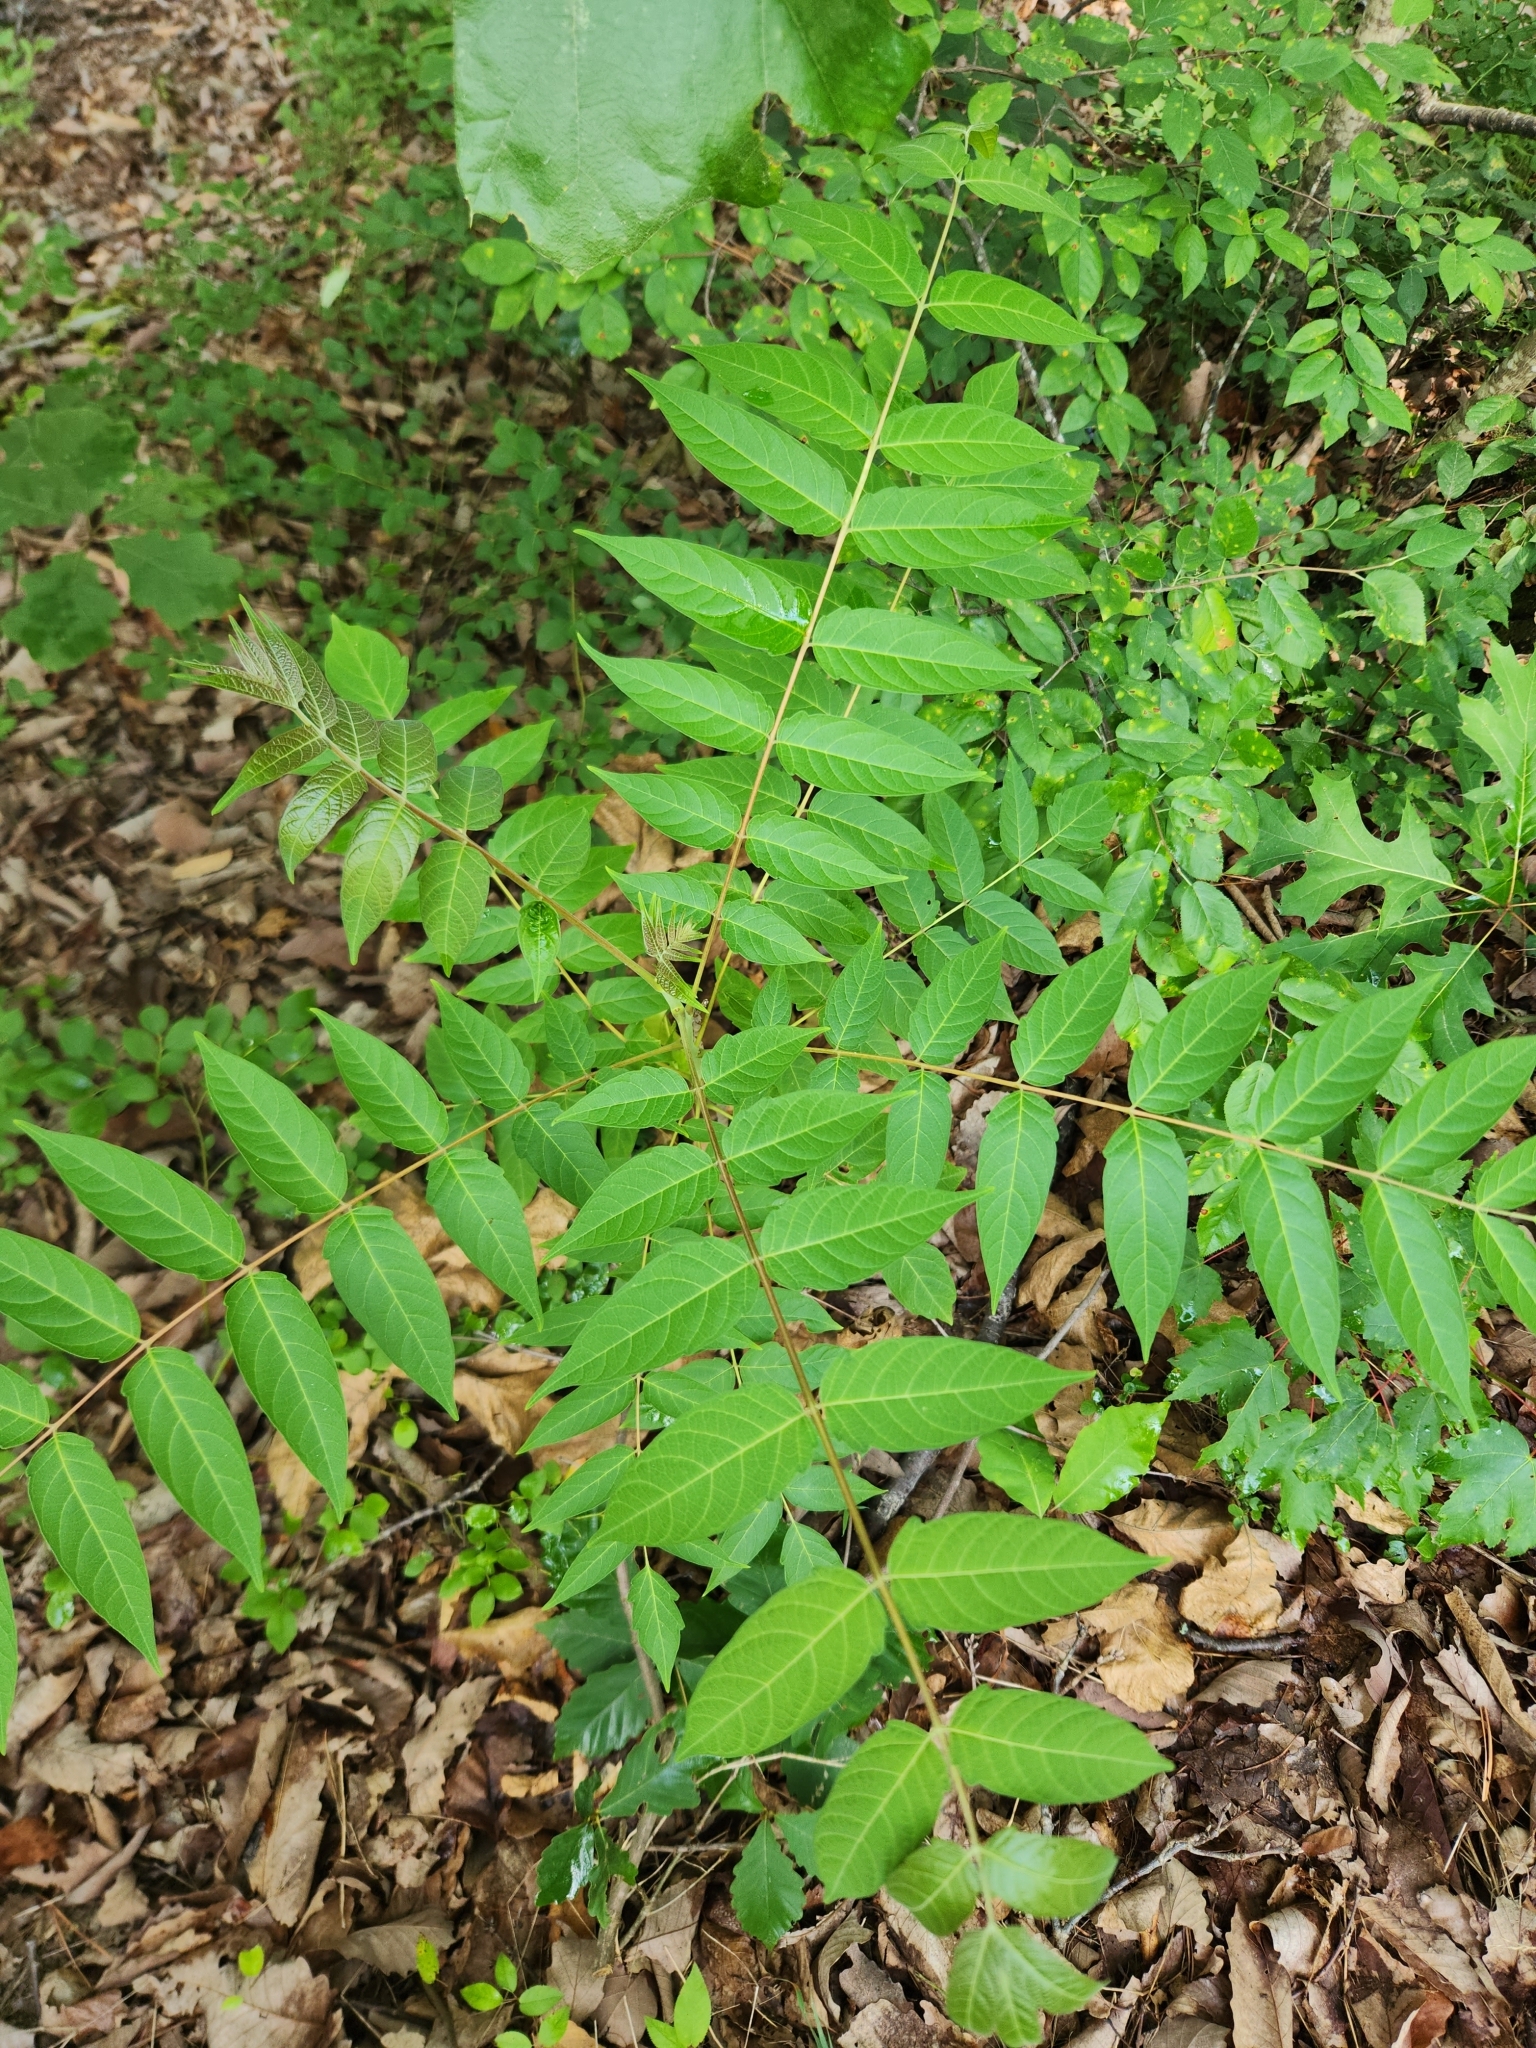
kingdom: Plantae
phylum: Tracheophyta
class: Magnoliopsida
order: Sapindales
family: Simaroubaceae
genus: Ailanthus
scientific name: Ailanthus altissima
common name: Tree-of-heaven
